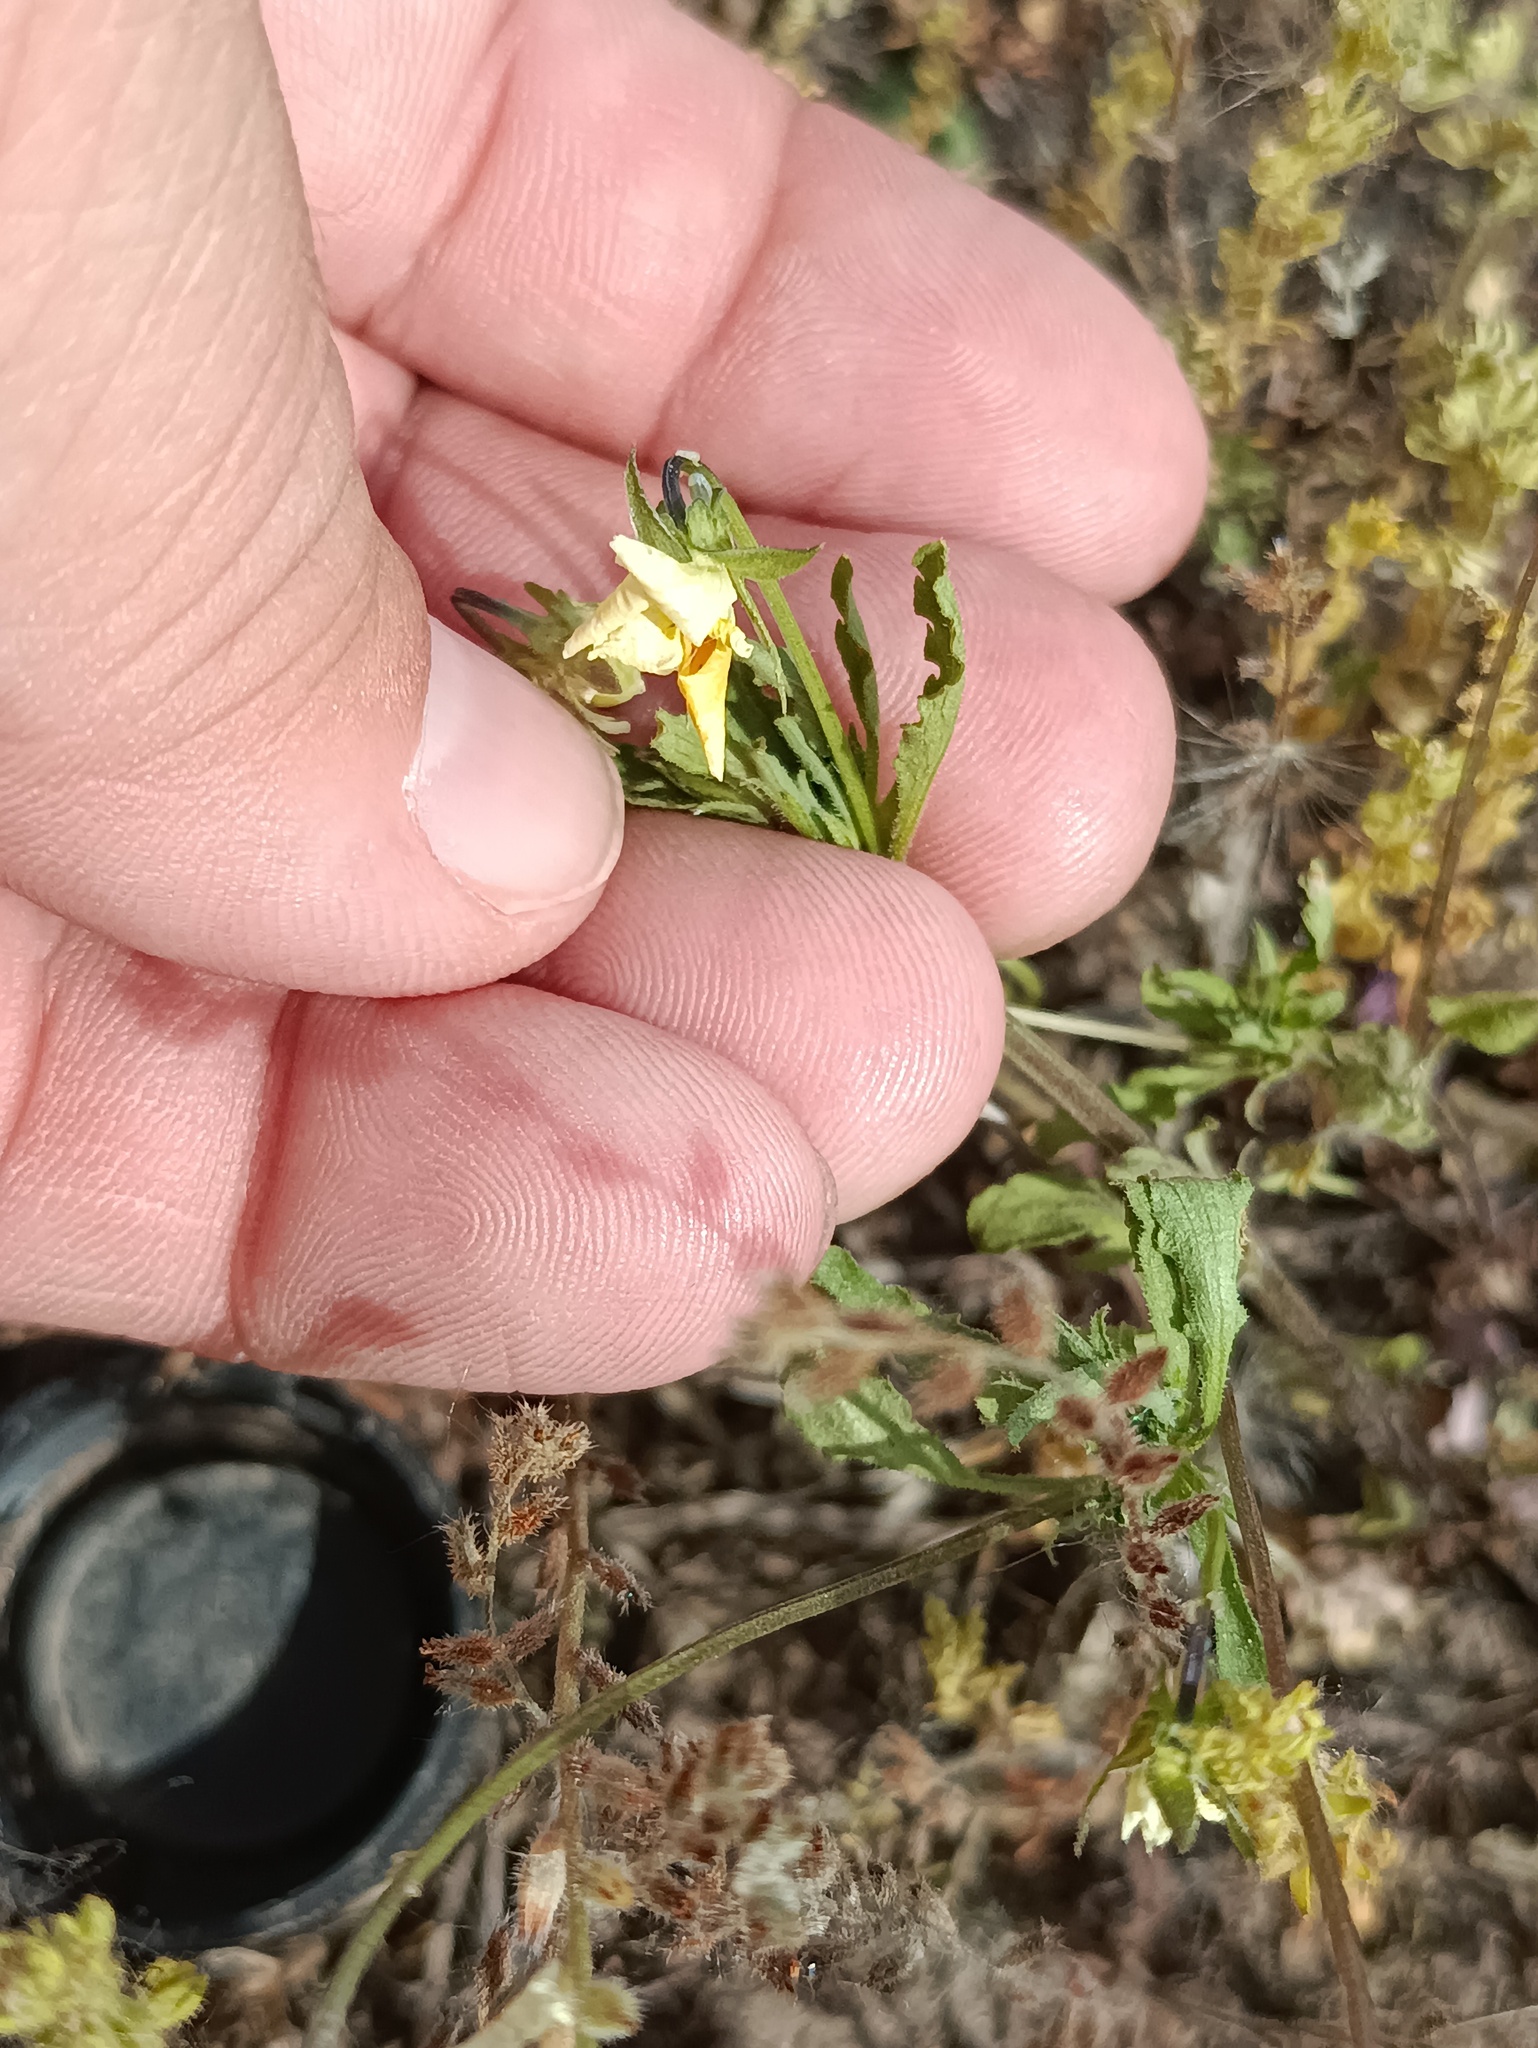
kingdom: Plantae
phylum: Tracheophyta
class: Magnoliopsida
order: Malpighiales
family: Violaceae
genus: Viola
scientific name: Viola contempta
